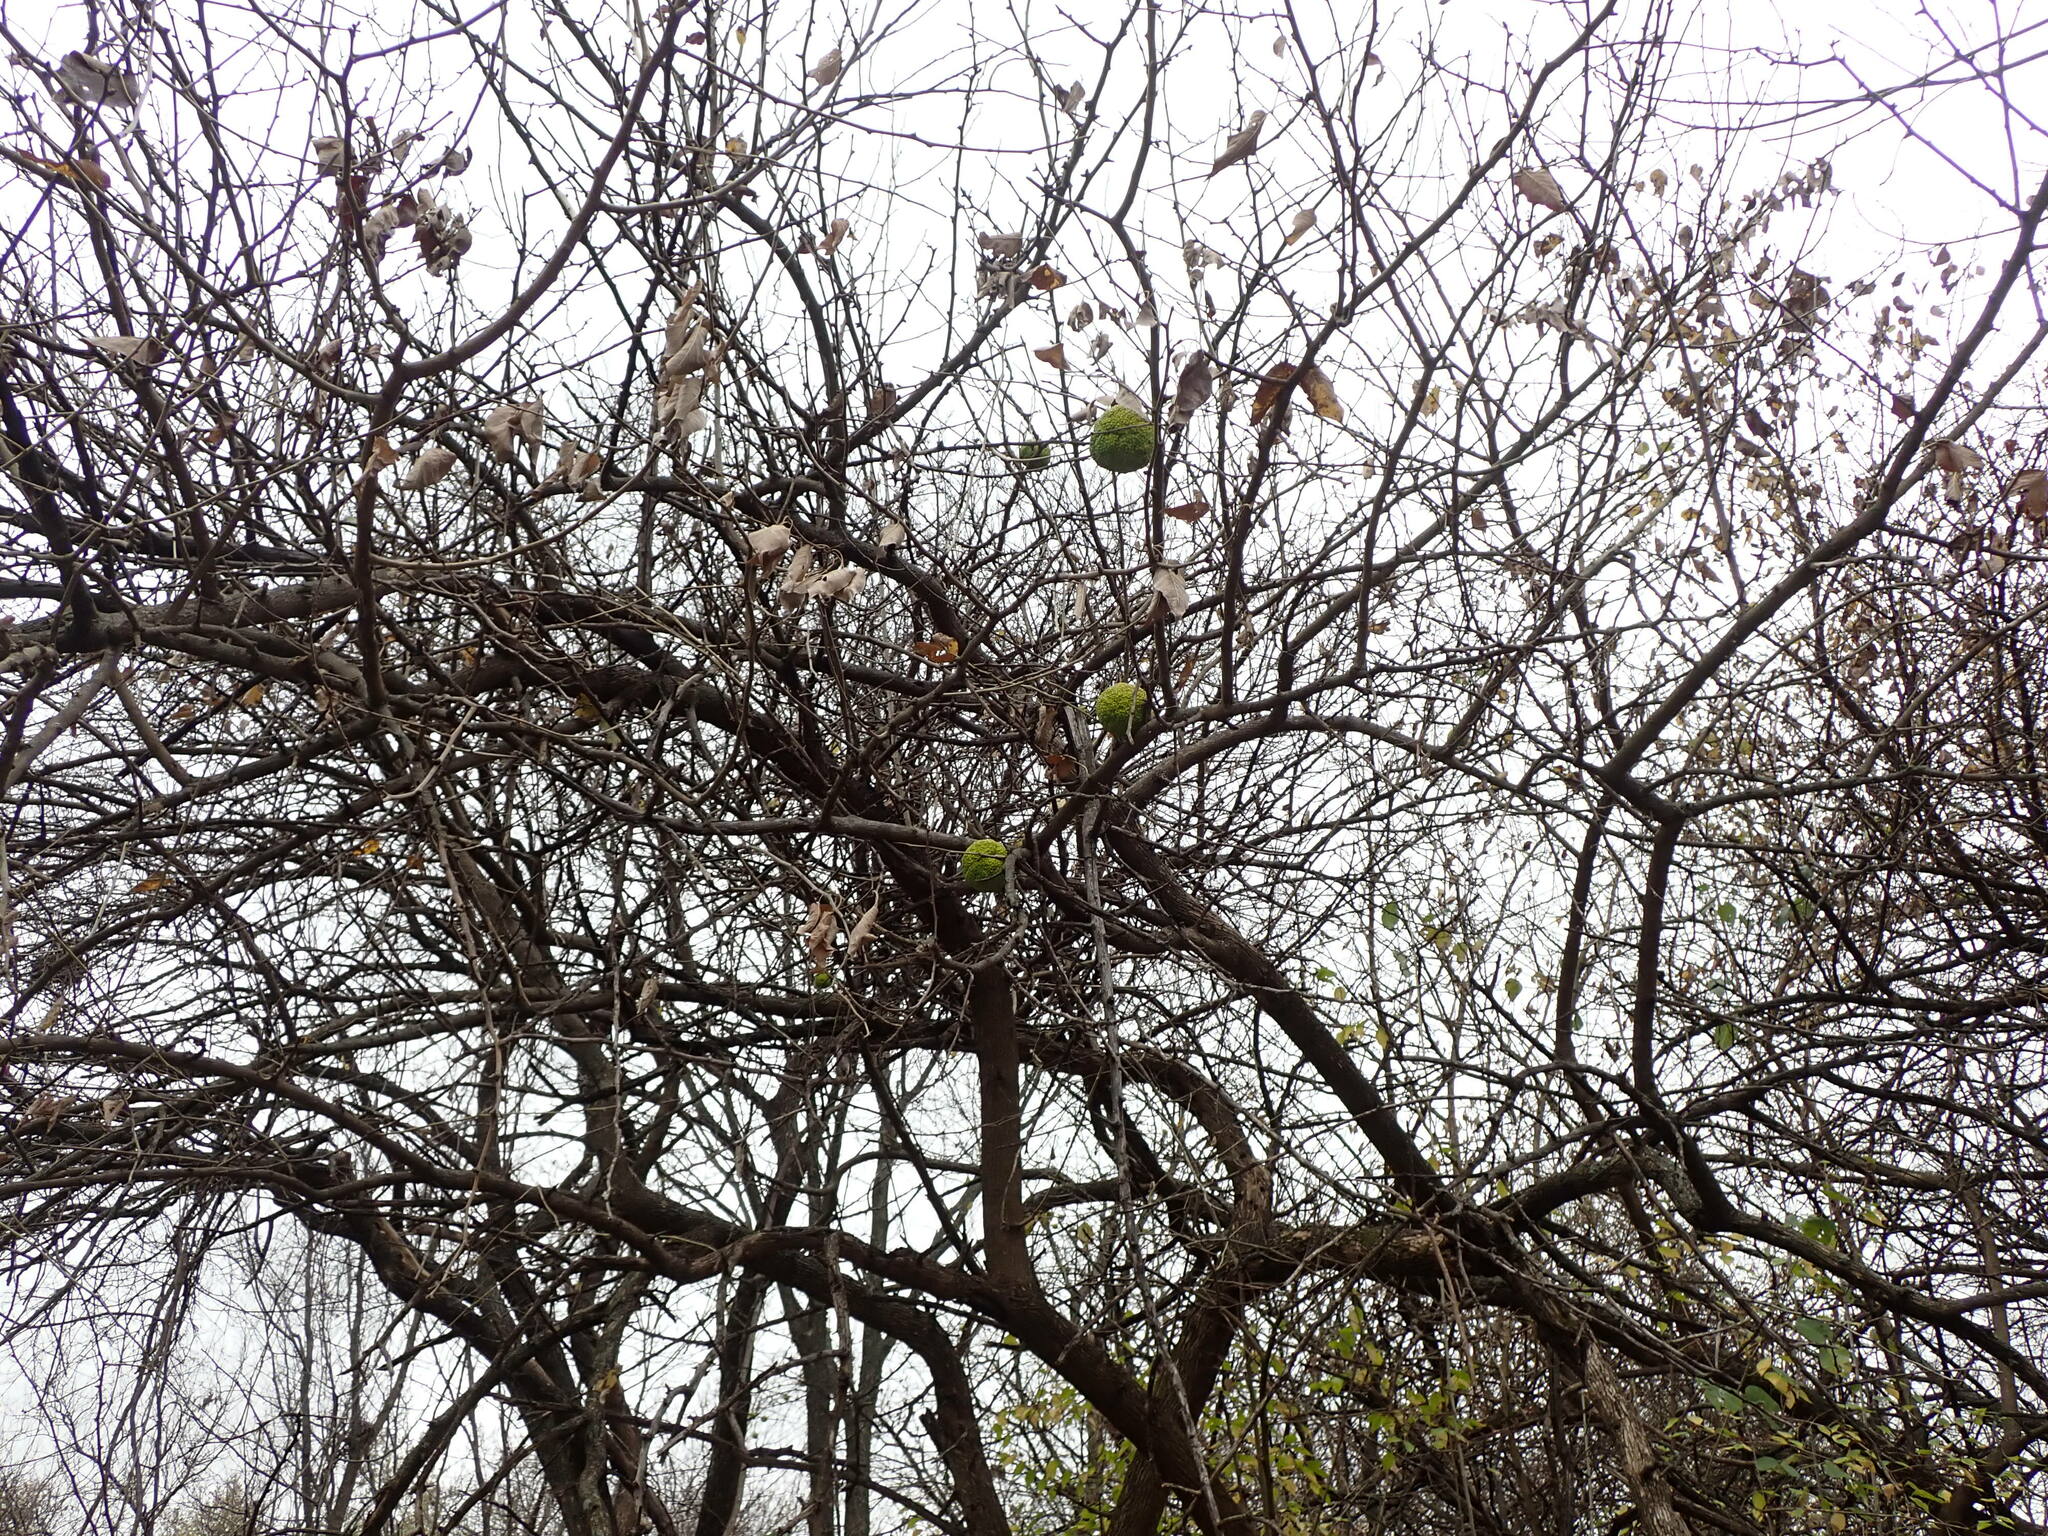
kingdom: Plantae
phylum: Tracheophyta
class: Magnoliopsida
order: Rosales
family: Moraceae
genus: Maclura
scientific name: Maclura pomifera
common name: Osage-orange
